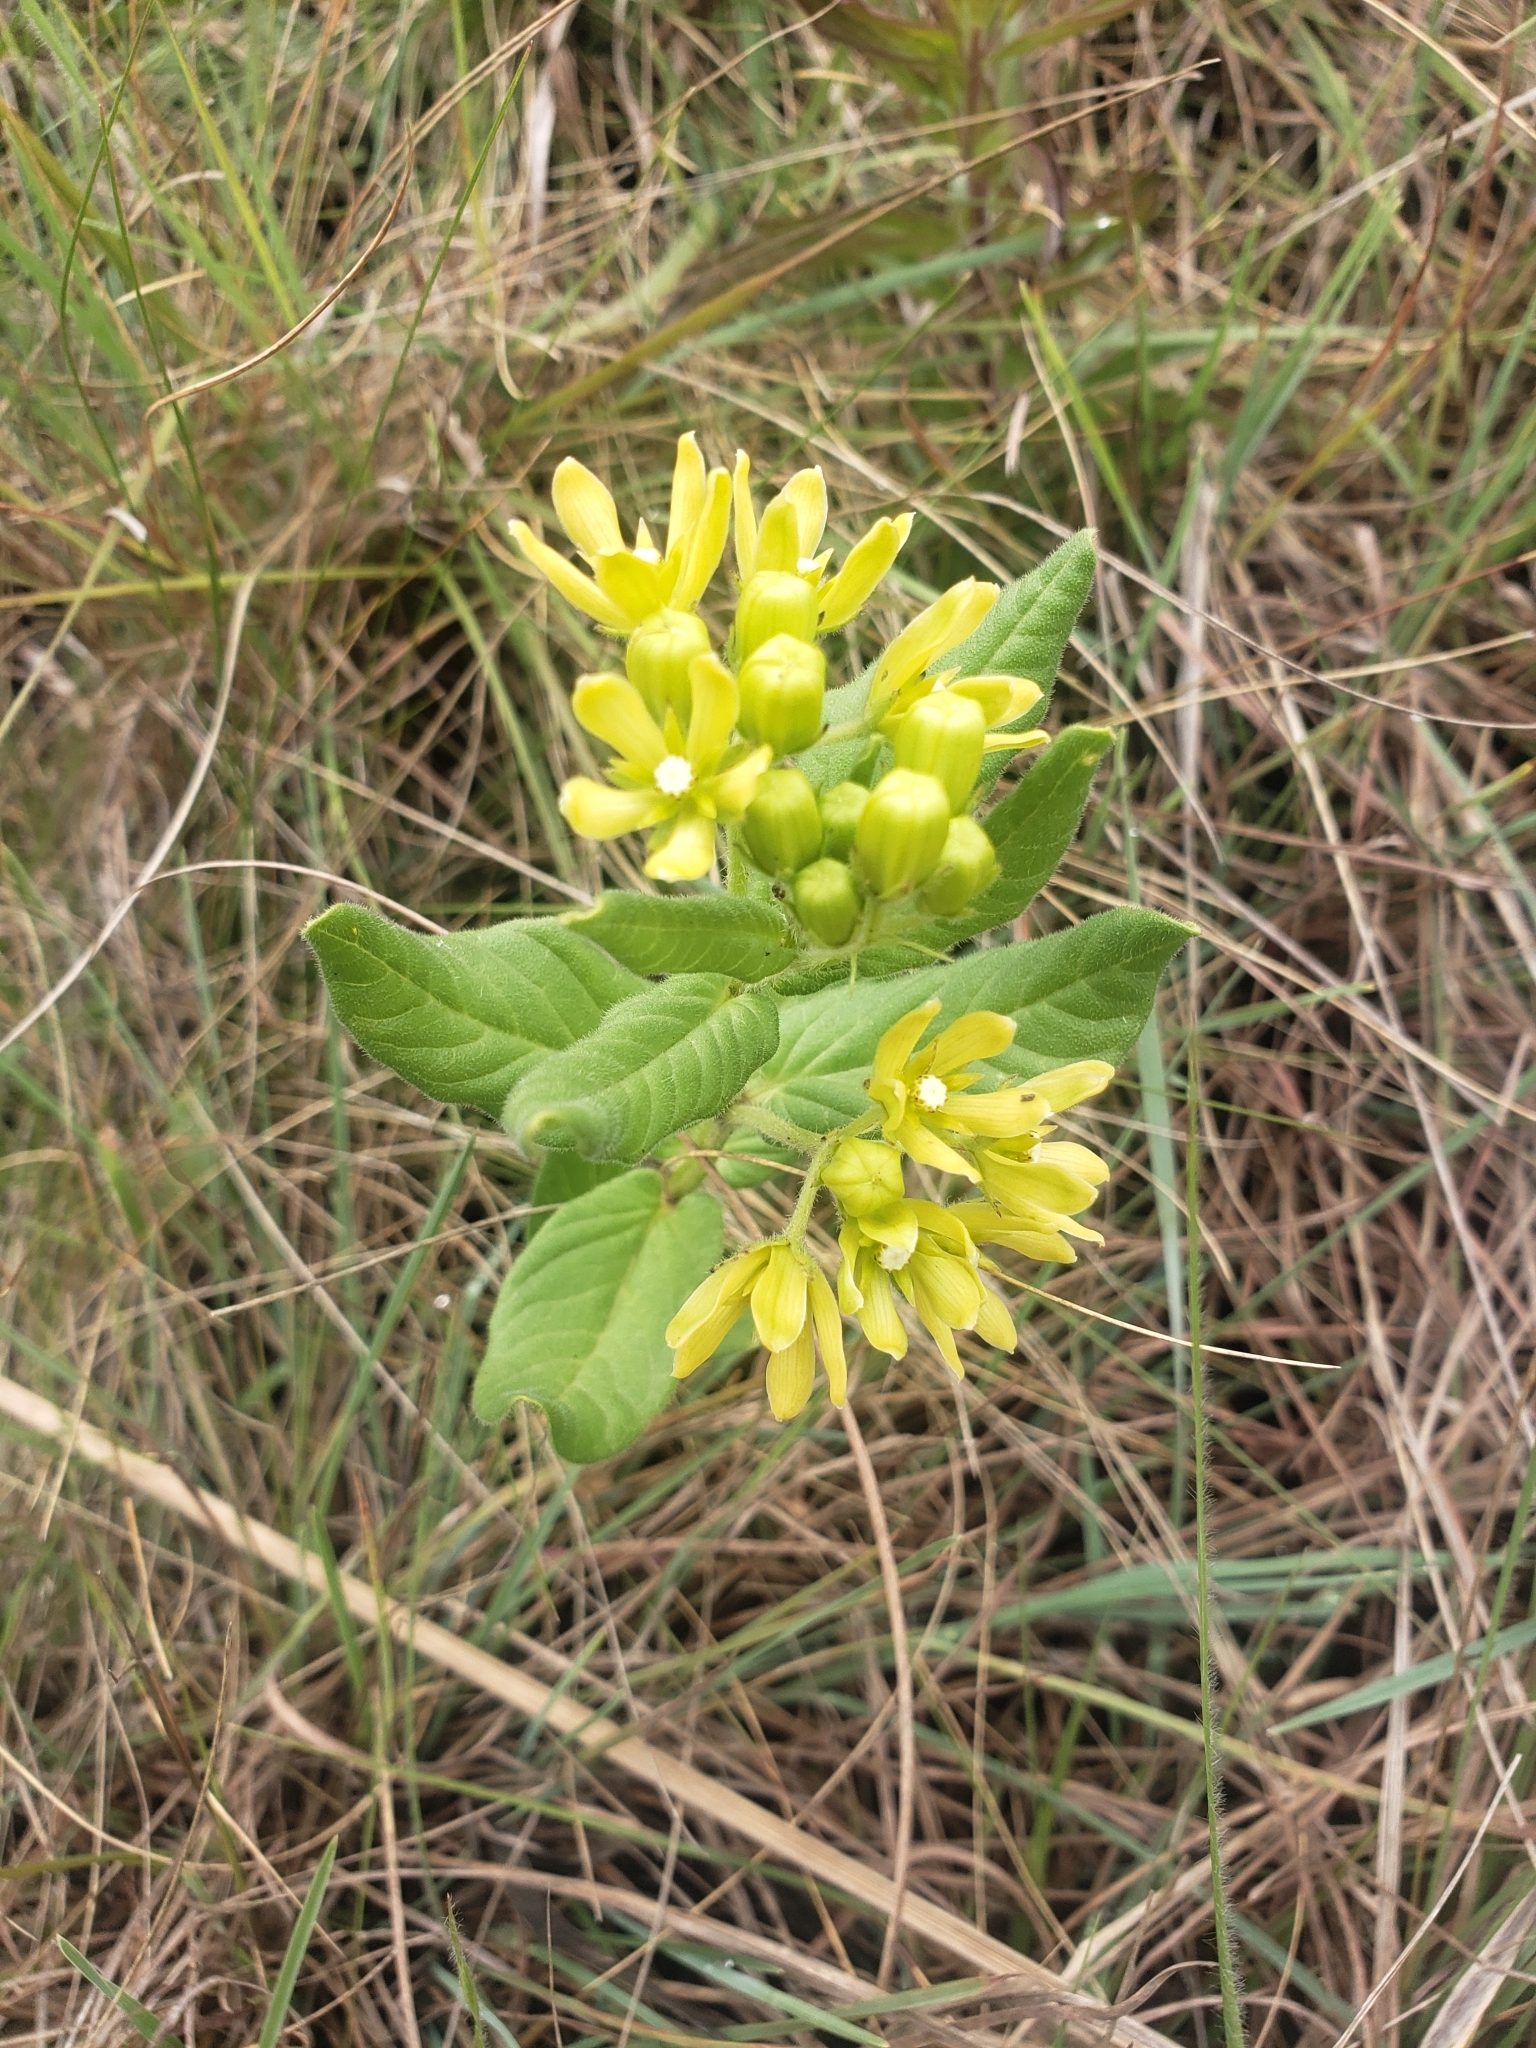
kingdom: Plantae
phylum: Tracheophyta
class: Magnoliopsida
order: Gentianales
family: Apocynaceae
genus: Schizoglossum
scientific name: Schizoglossum flavum
